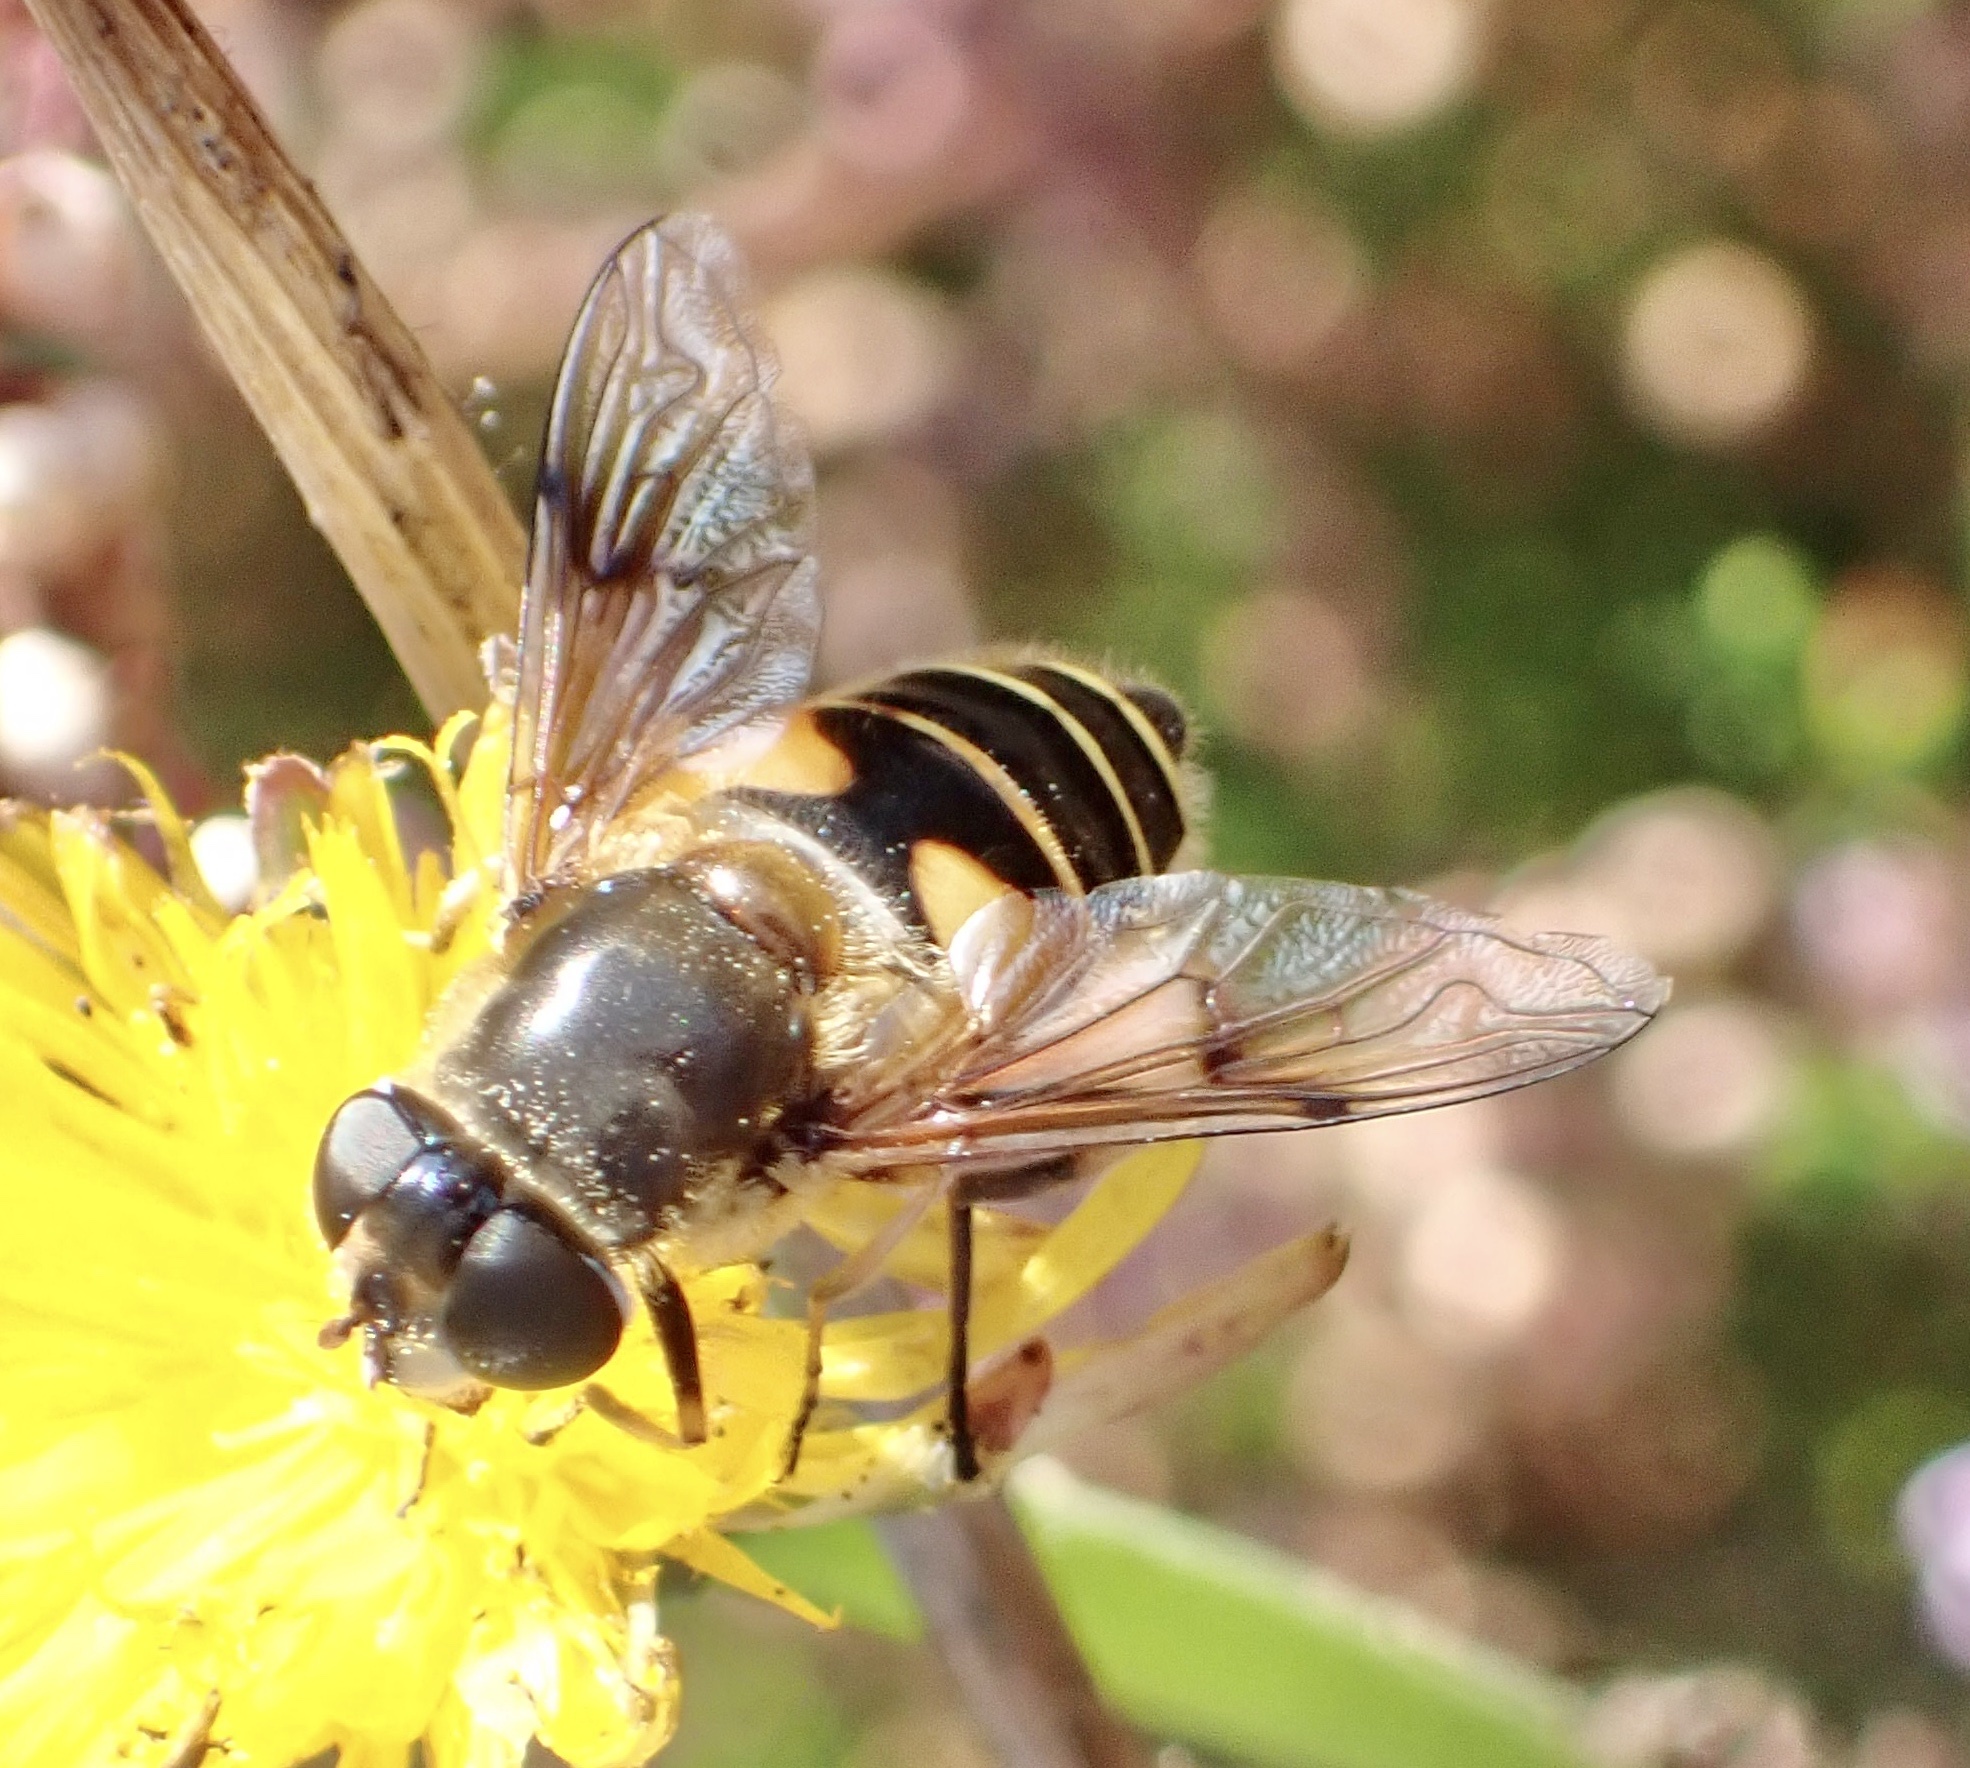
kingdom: Animalia
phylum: Arthropoda
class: Insecta
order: Diptera
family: Syrphidae
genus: Cheilosia
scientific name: Cheilosia morio
